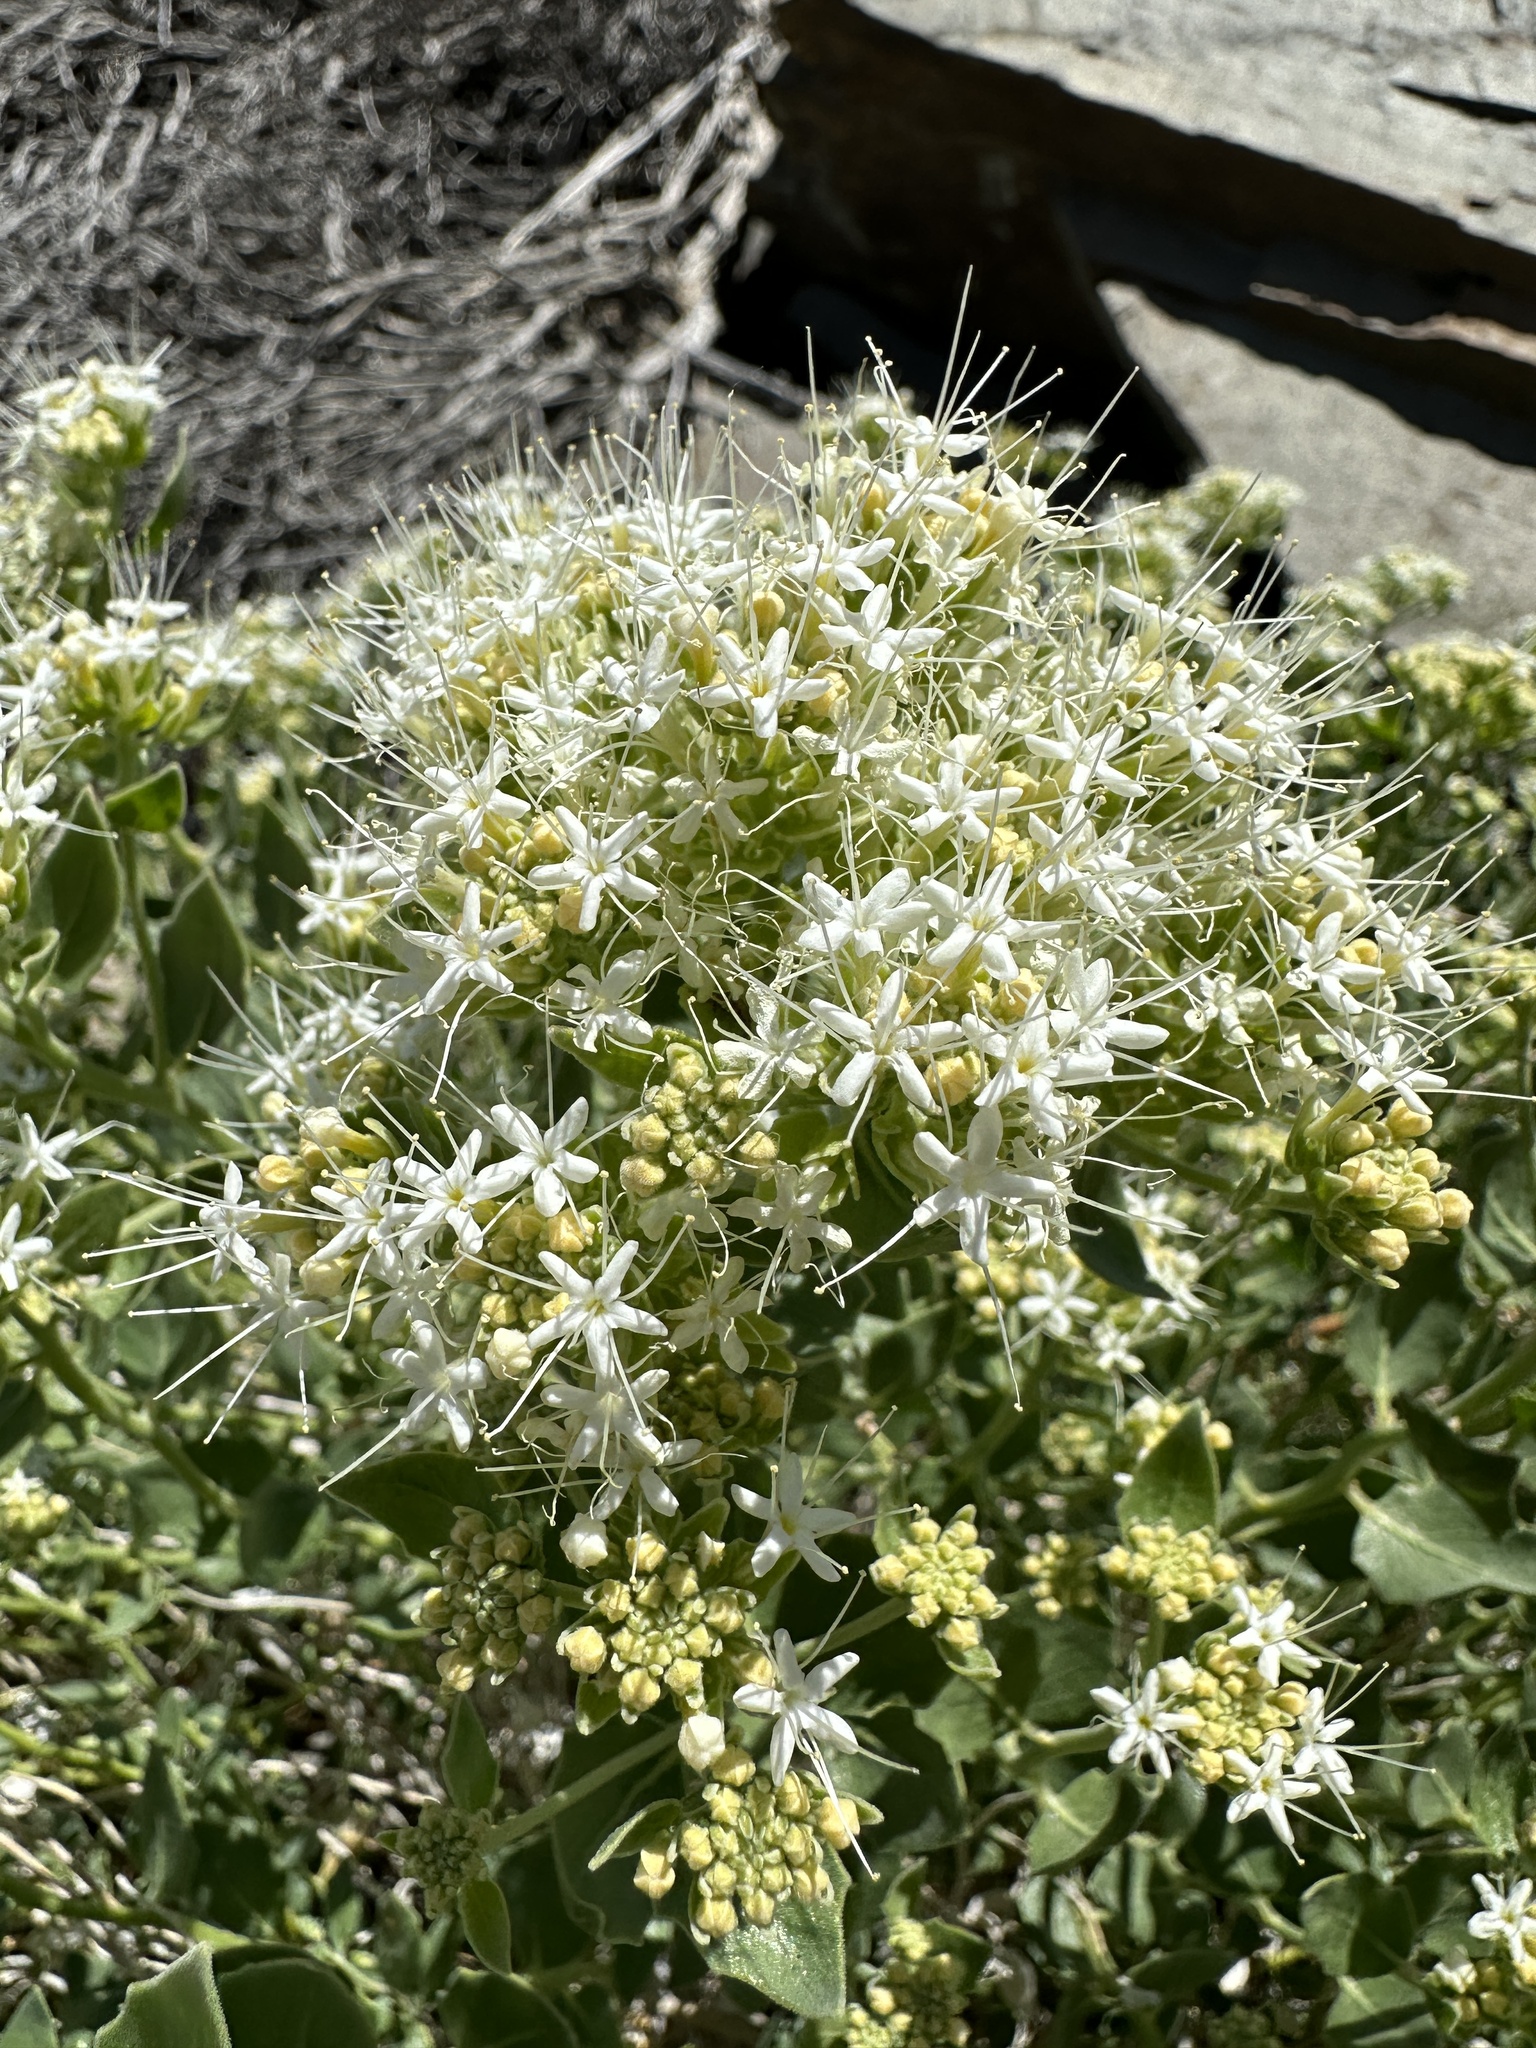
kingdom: Plantae
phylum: Tracheophyta
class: Magnoliopsida
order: Cornales
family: Loasaceae
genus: Petalonyx
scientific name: Petalonyx nitidus
